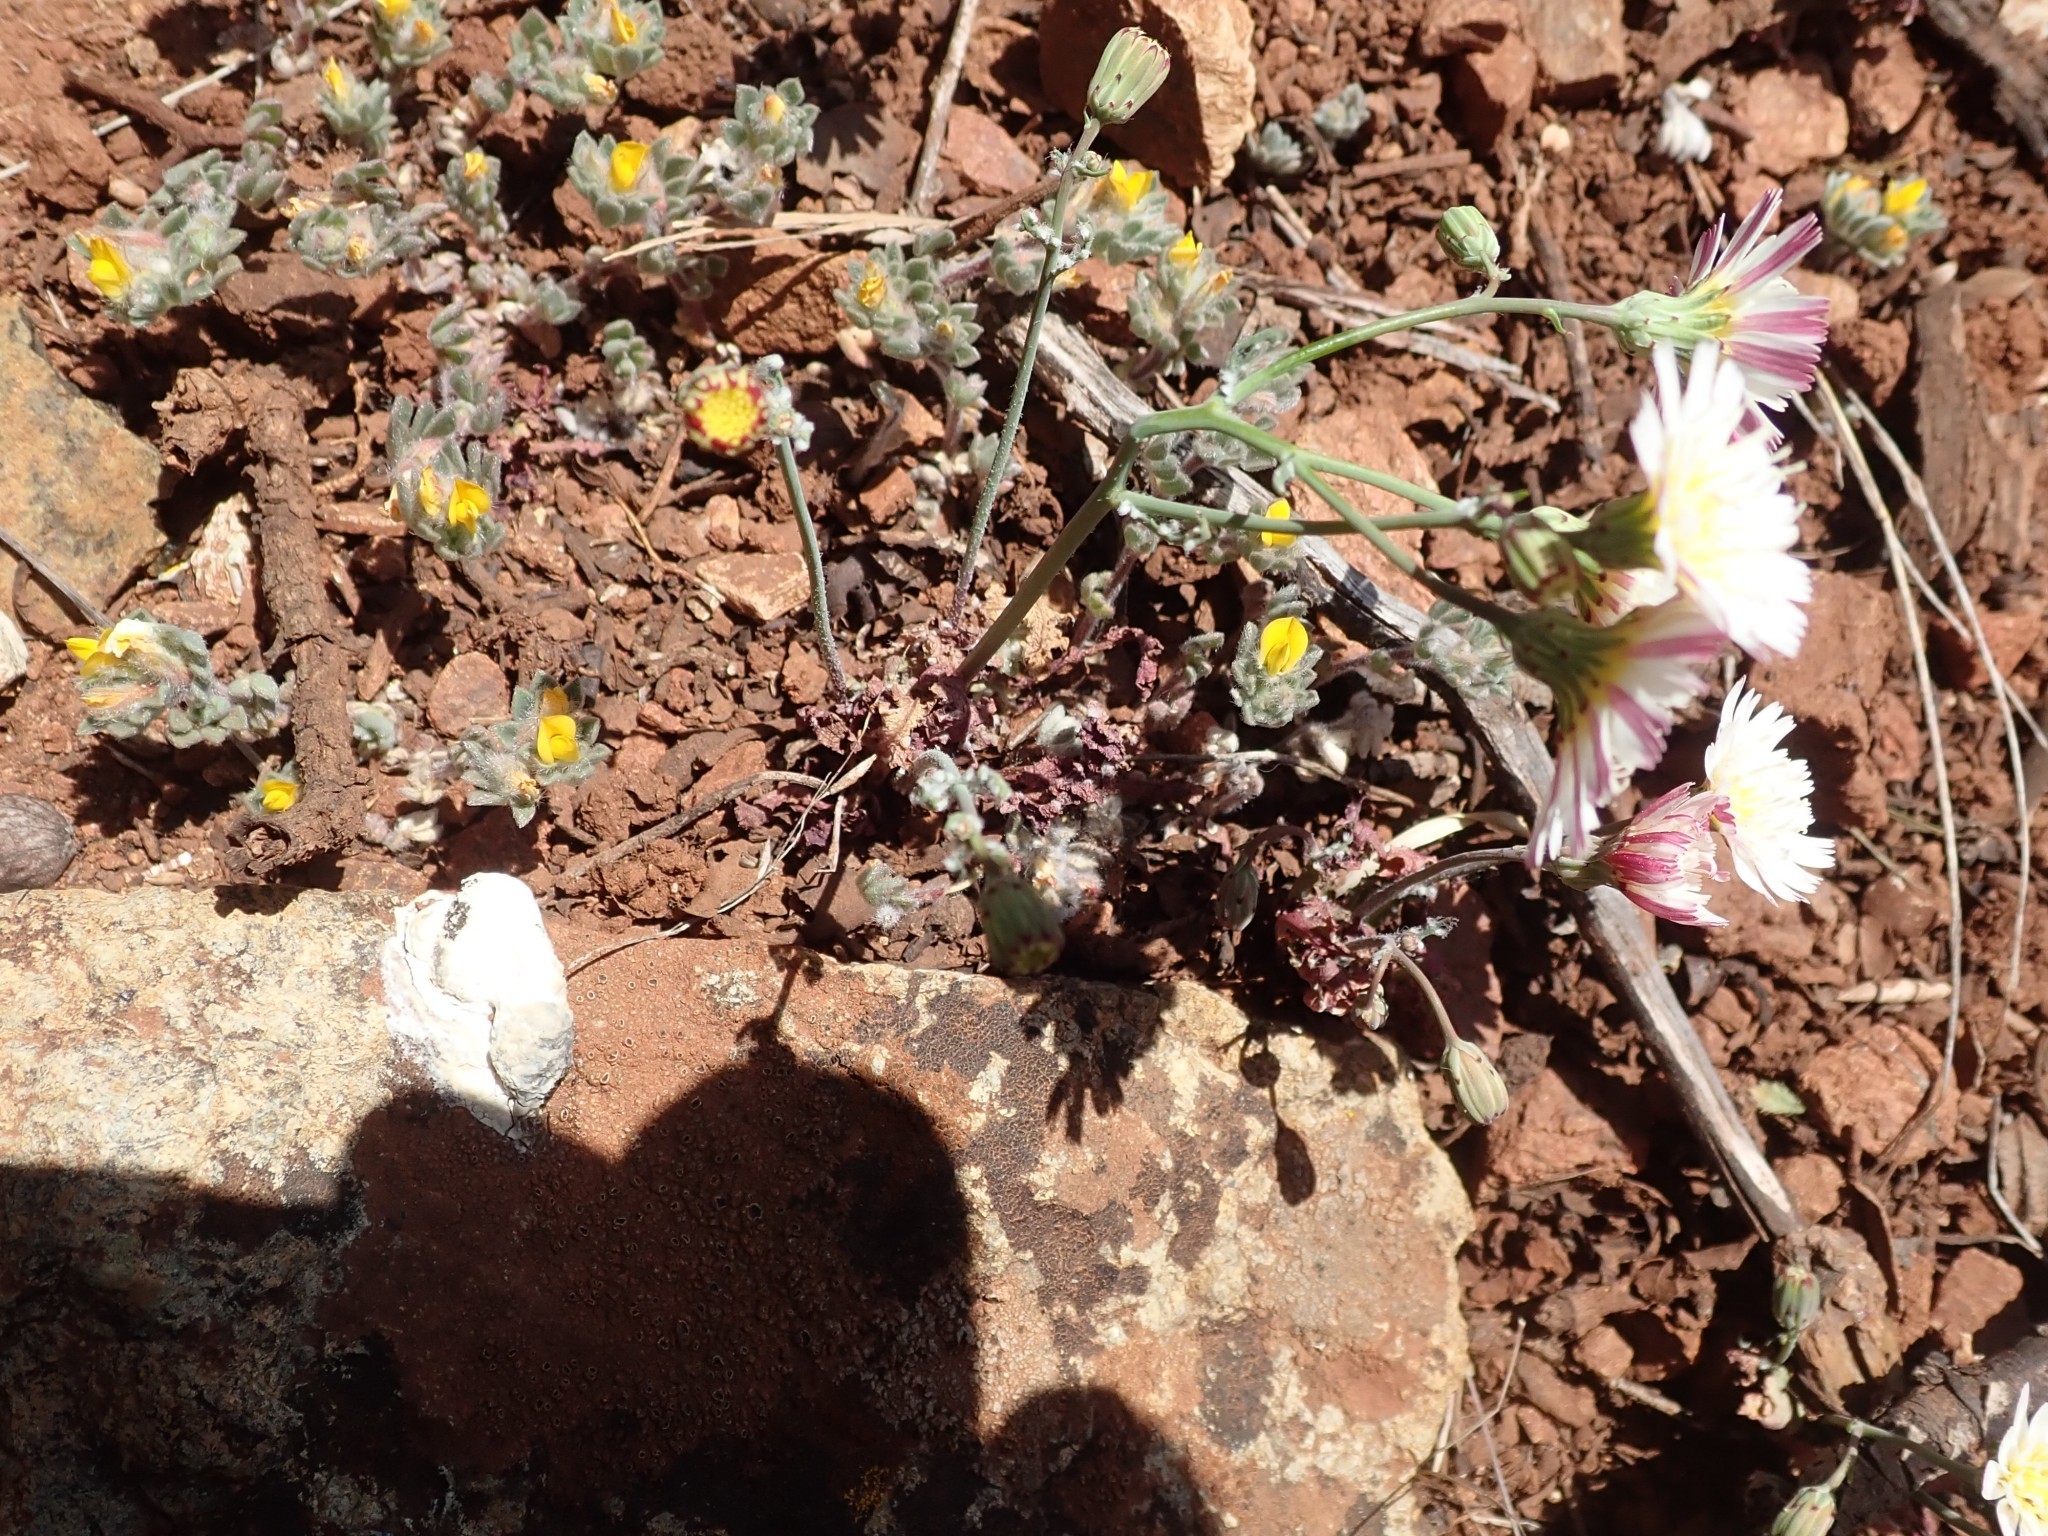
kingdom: Plantae
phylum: Tracheophyta
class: Magnoliopsida
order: Asterales
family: Asteraceae
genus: Malacothrix
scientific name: Malacothrix floccifera
